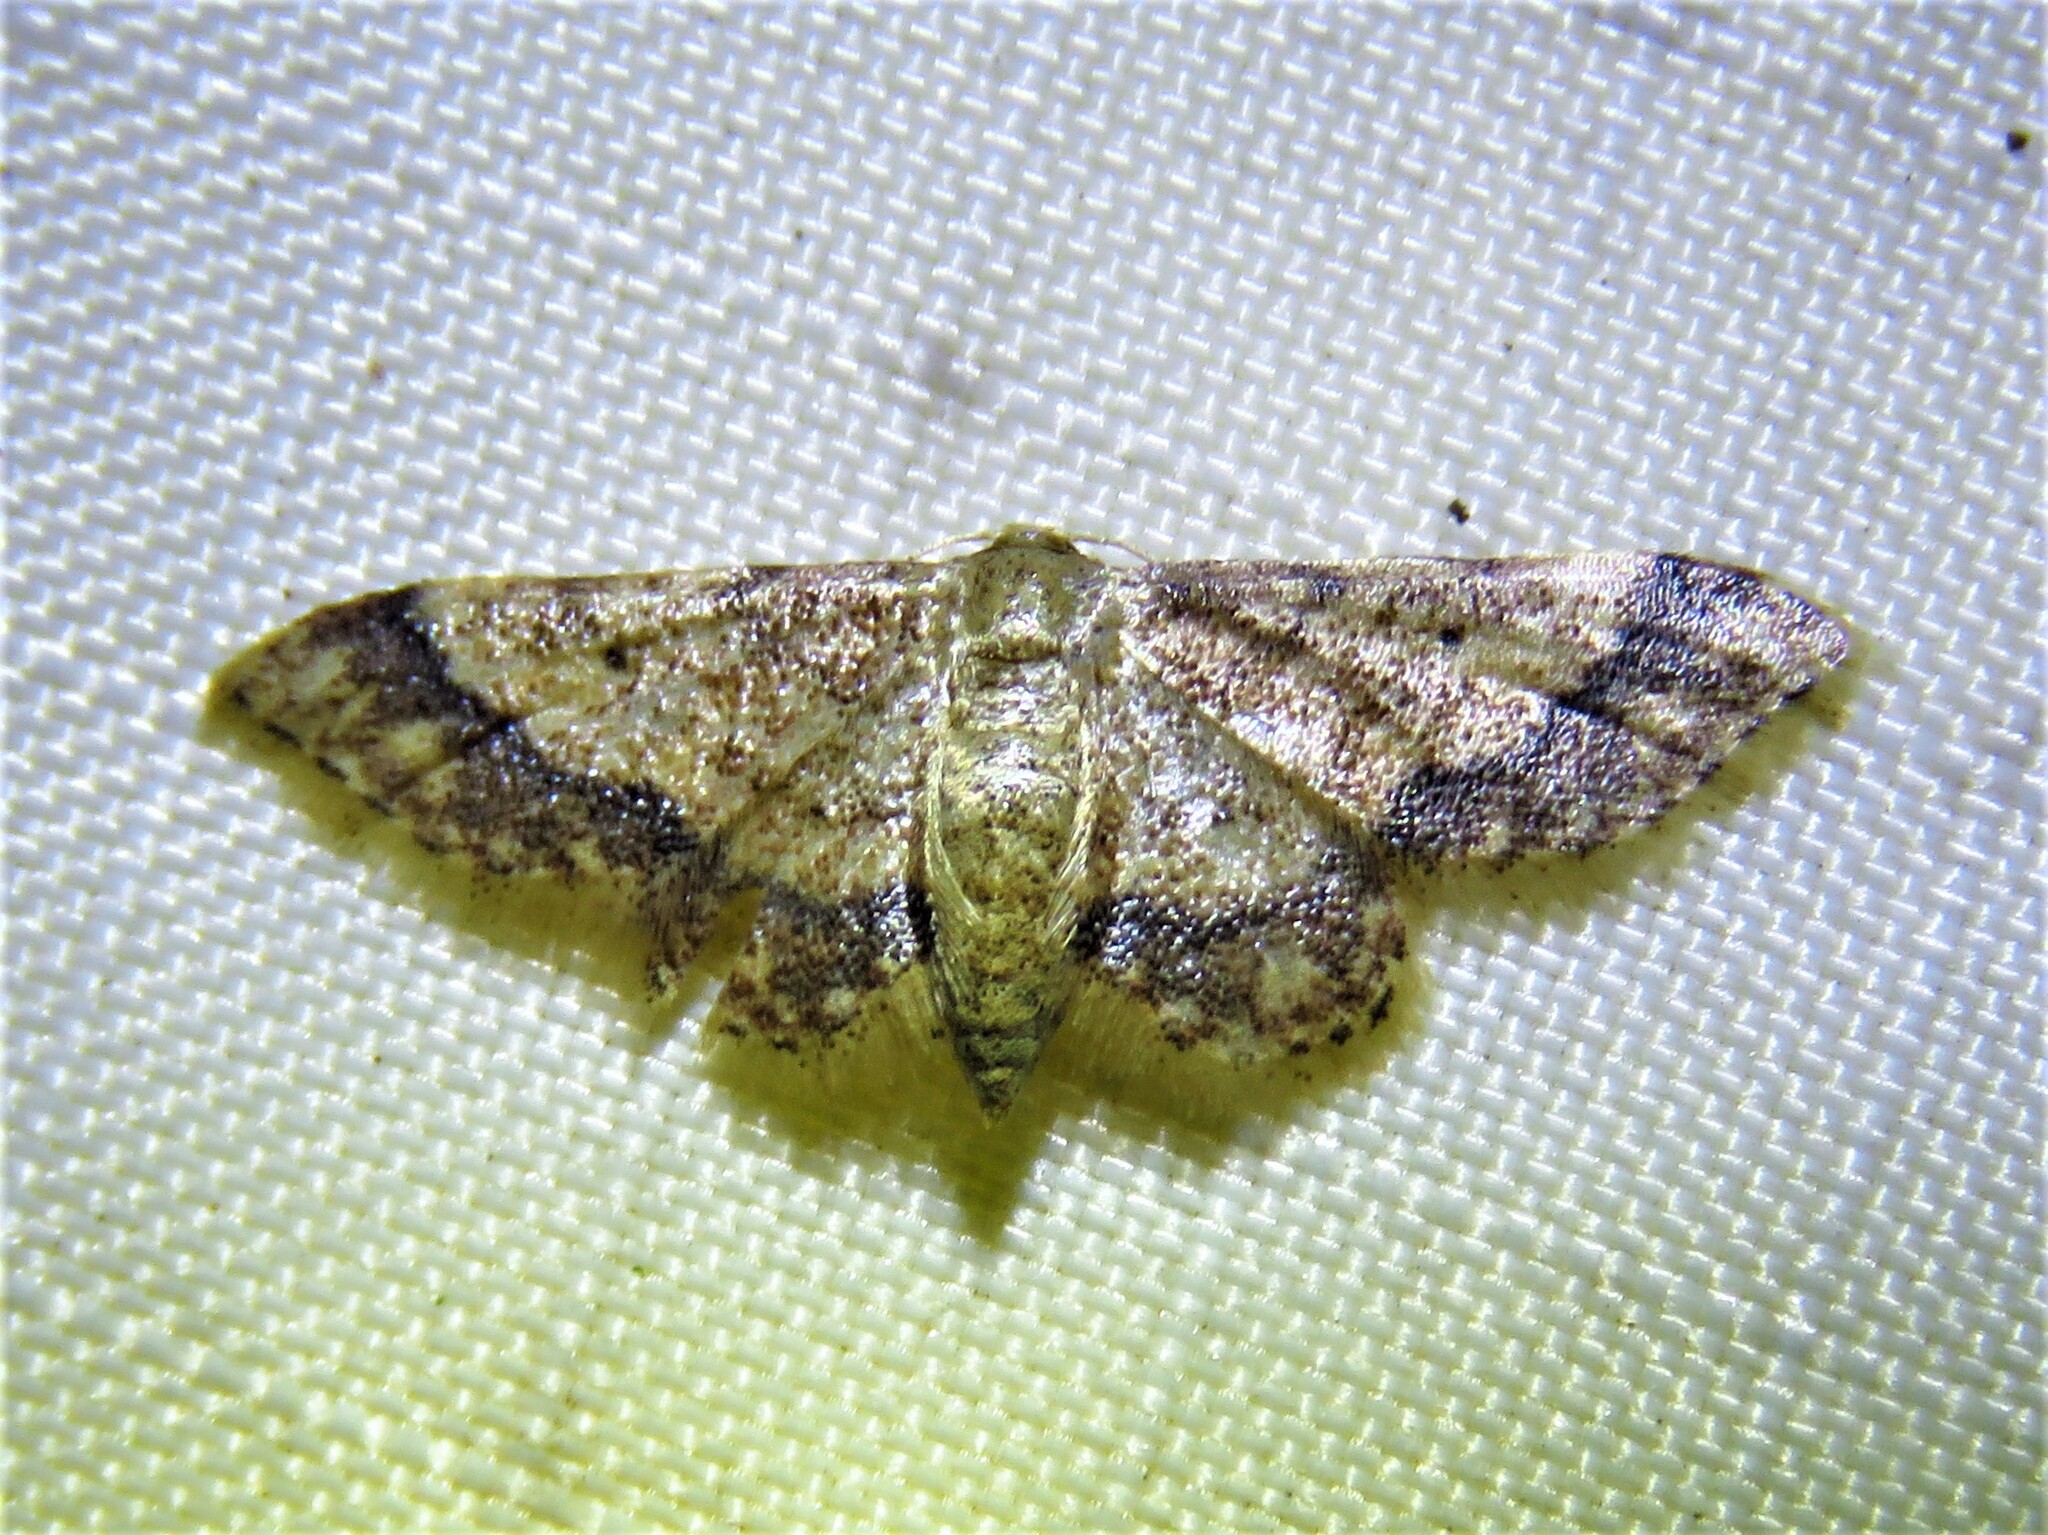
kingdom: Animalia
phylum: Arthropoda
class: Insecta
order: Lepidoptera
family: Geometridae
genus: Idaea
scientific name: Idaea celtima
